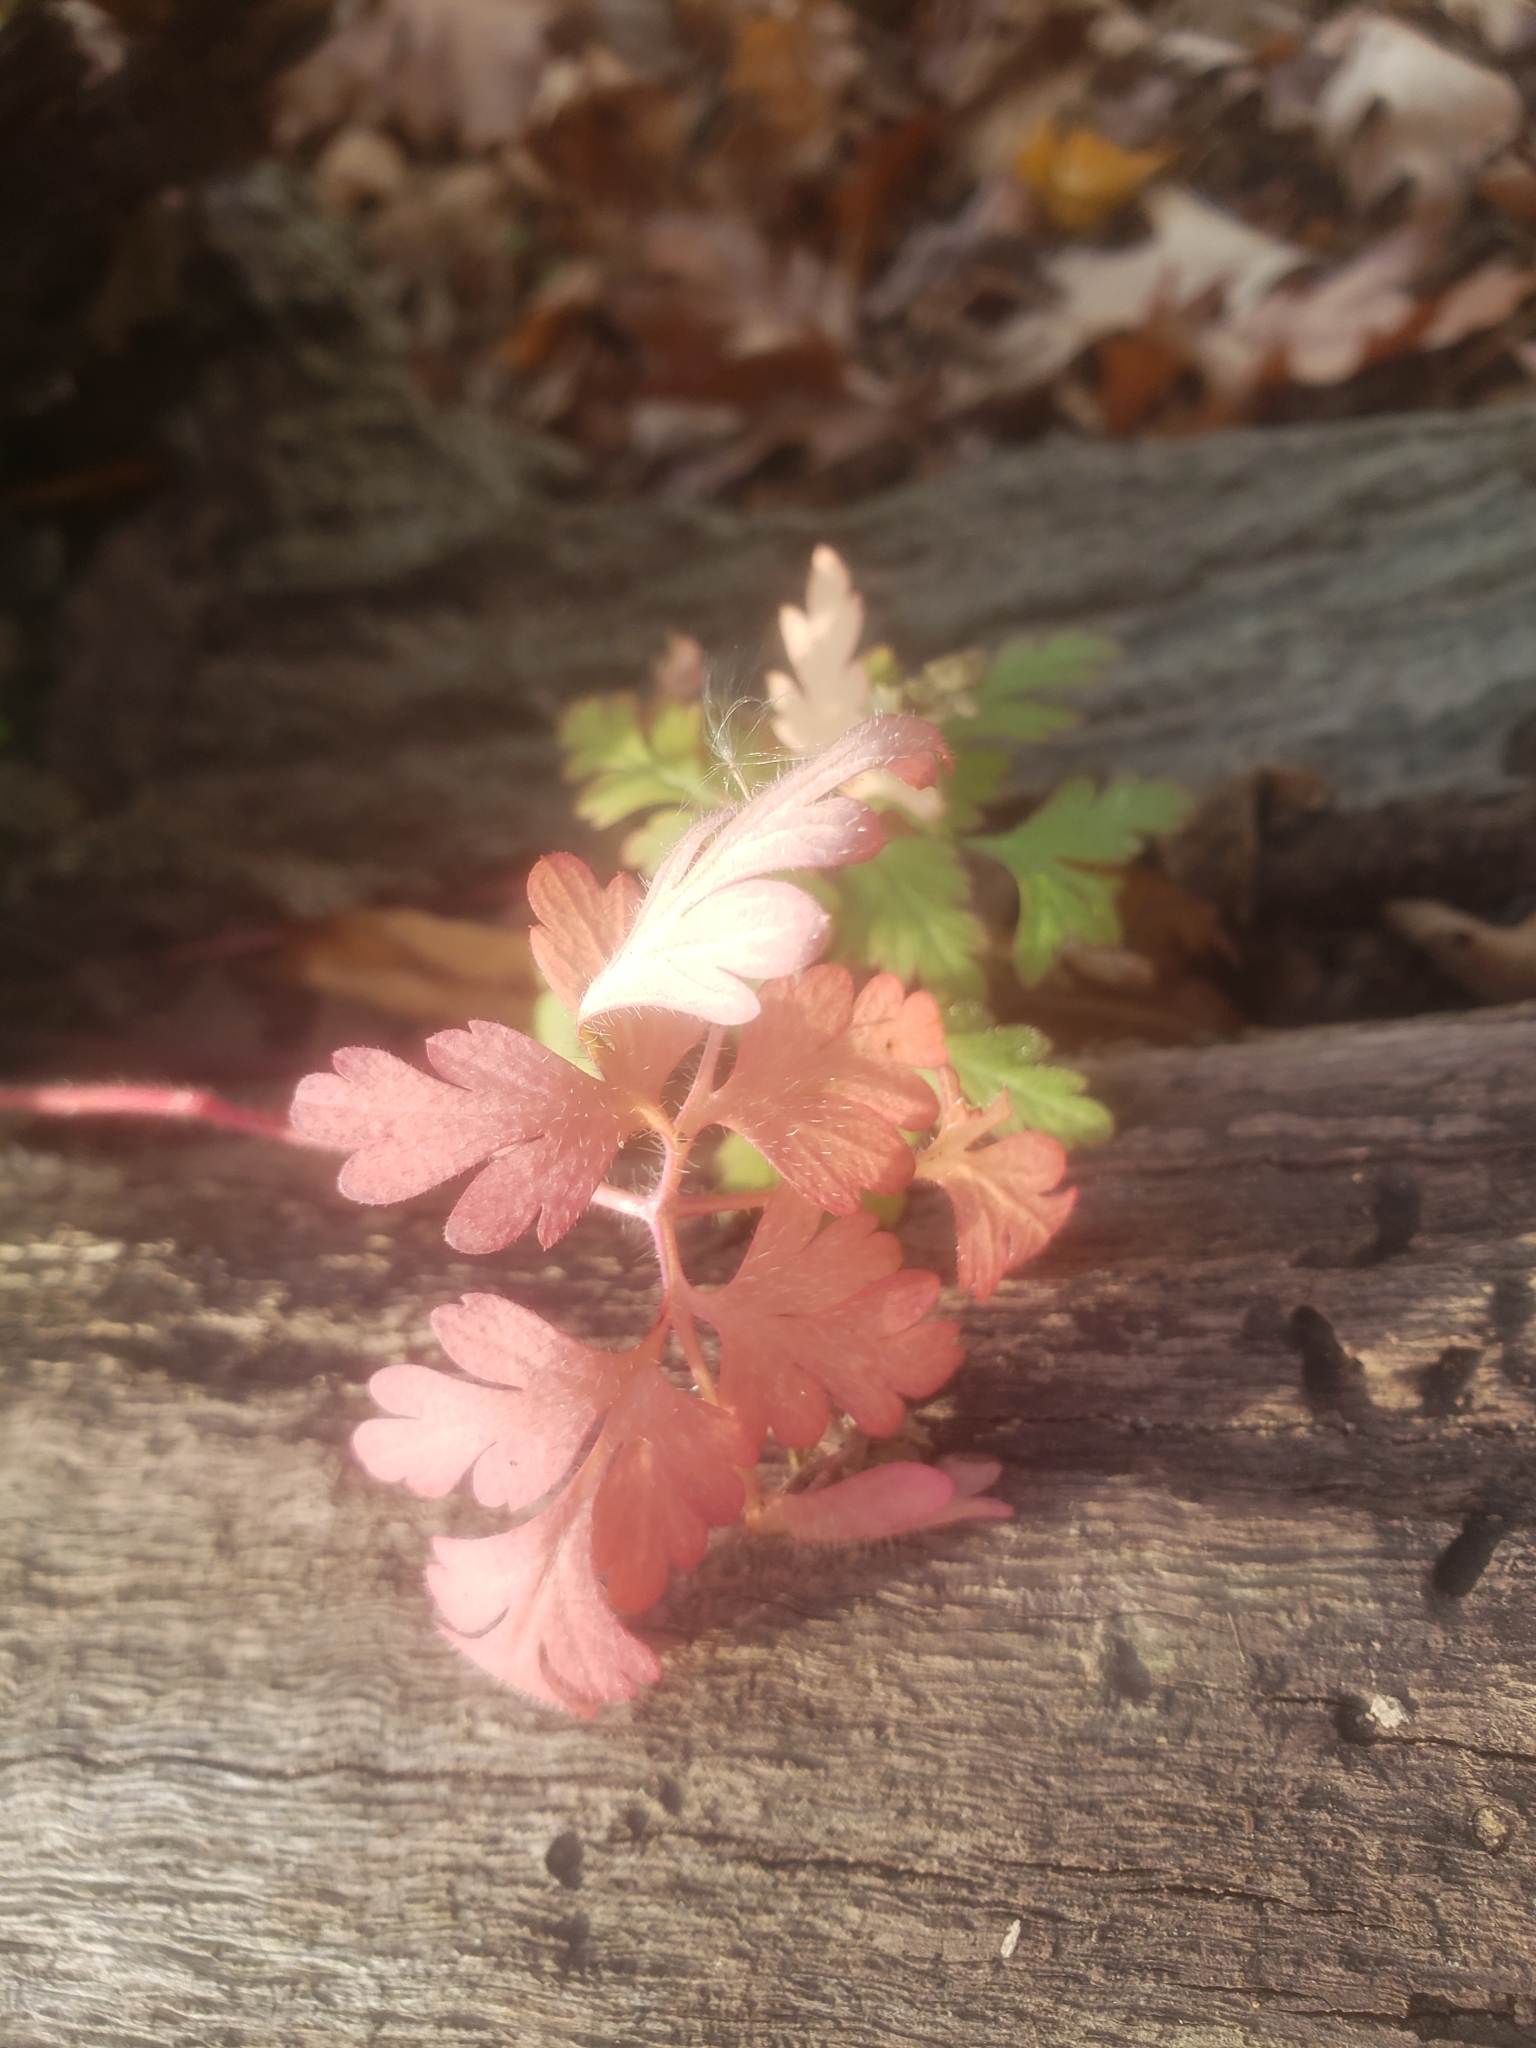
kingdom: Plantae
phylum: Tracheophyta
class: Magnoliopsida
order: Geraniales
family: Geraniaceae
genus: Geranium
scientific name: Geranium robertianum
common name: Herb-robert
